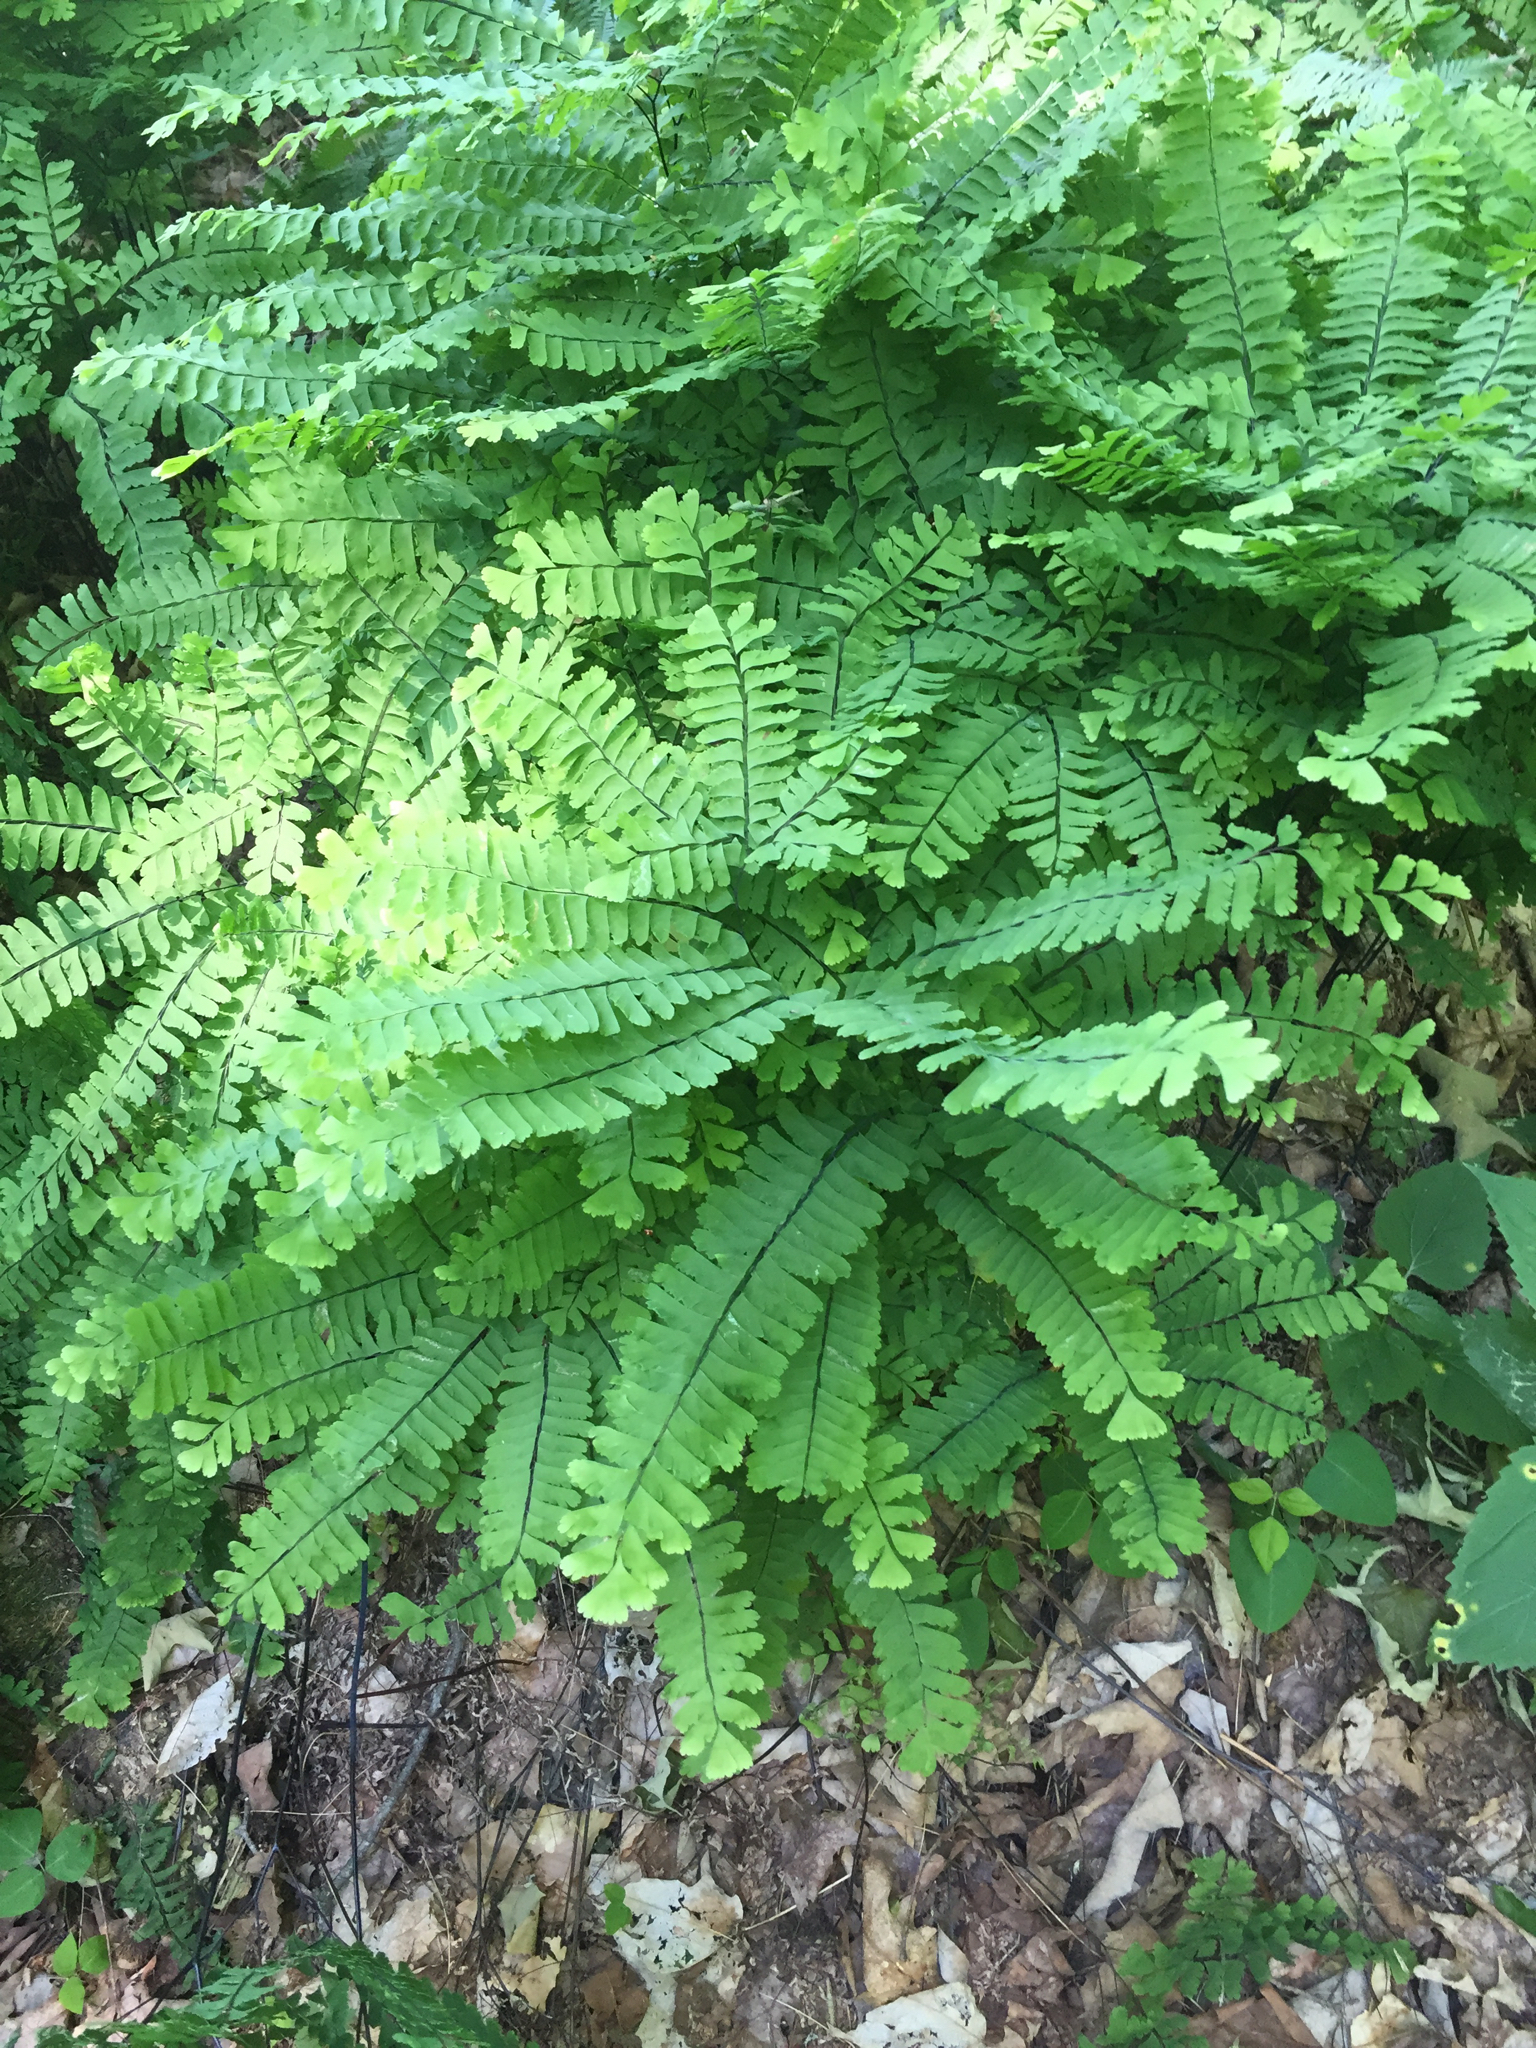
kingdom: Plantae
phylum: Tracheophyta
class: Polypodiopsida
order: Polypodiales
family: Pteridaceae
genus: Adiantum
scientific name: Adiantum pedatum
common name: Five-finger fern
